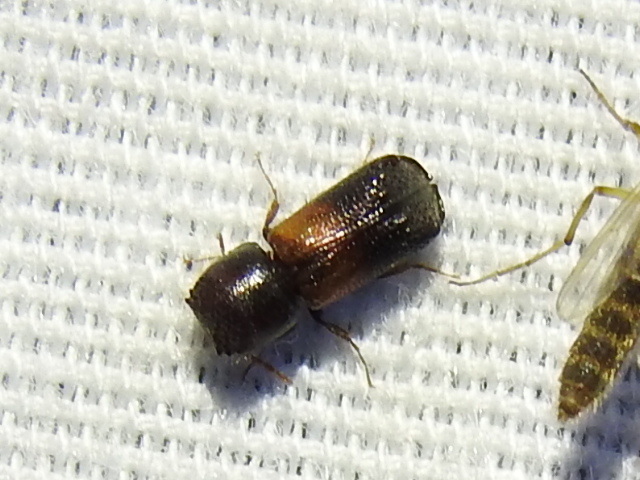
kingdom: Animalia
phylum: Arthropoda
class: Insecta
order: Coleoptera
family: Bostrichidae
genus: Xylobiops
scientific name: Xylobiops basilaris
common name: Red-shouldered bostrichid
